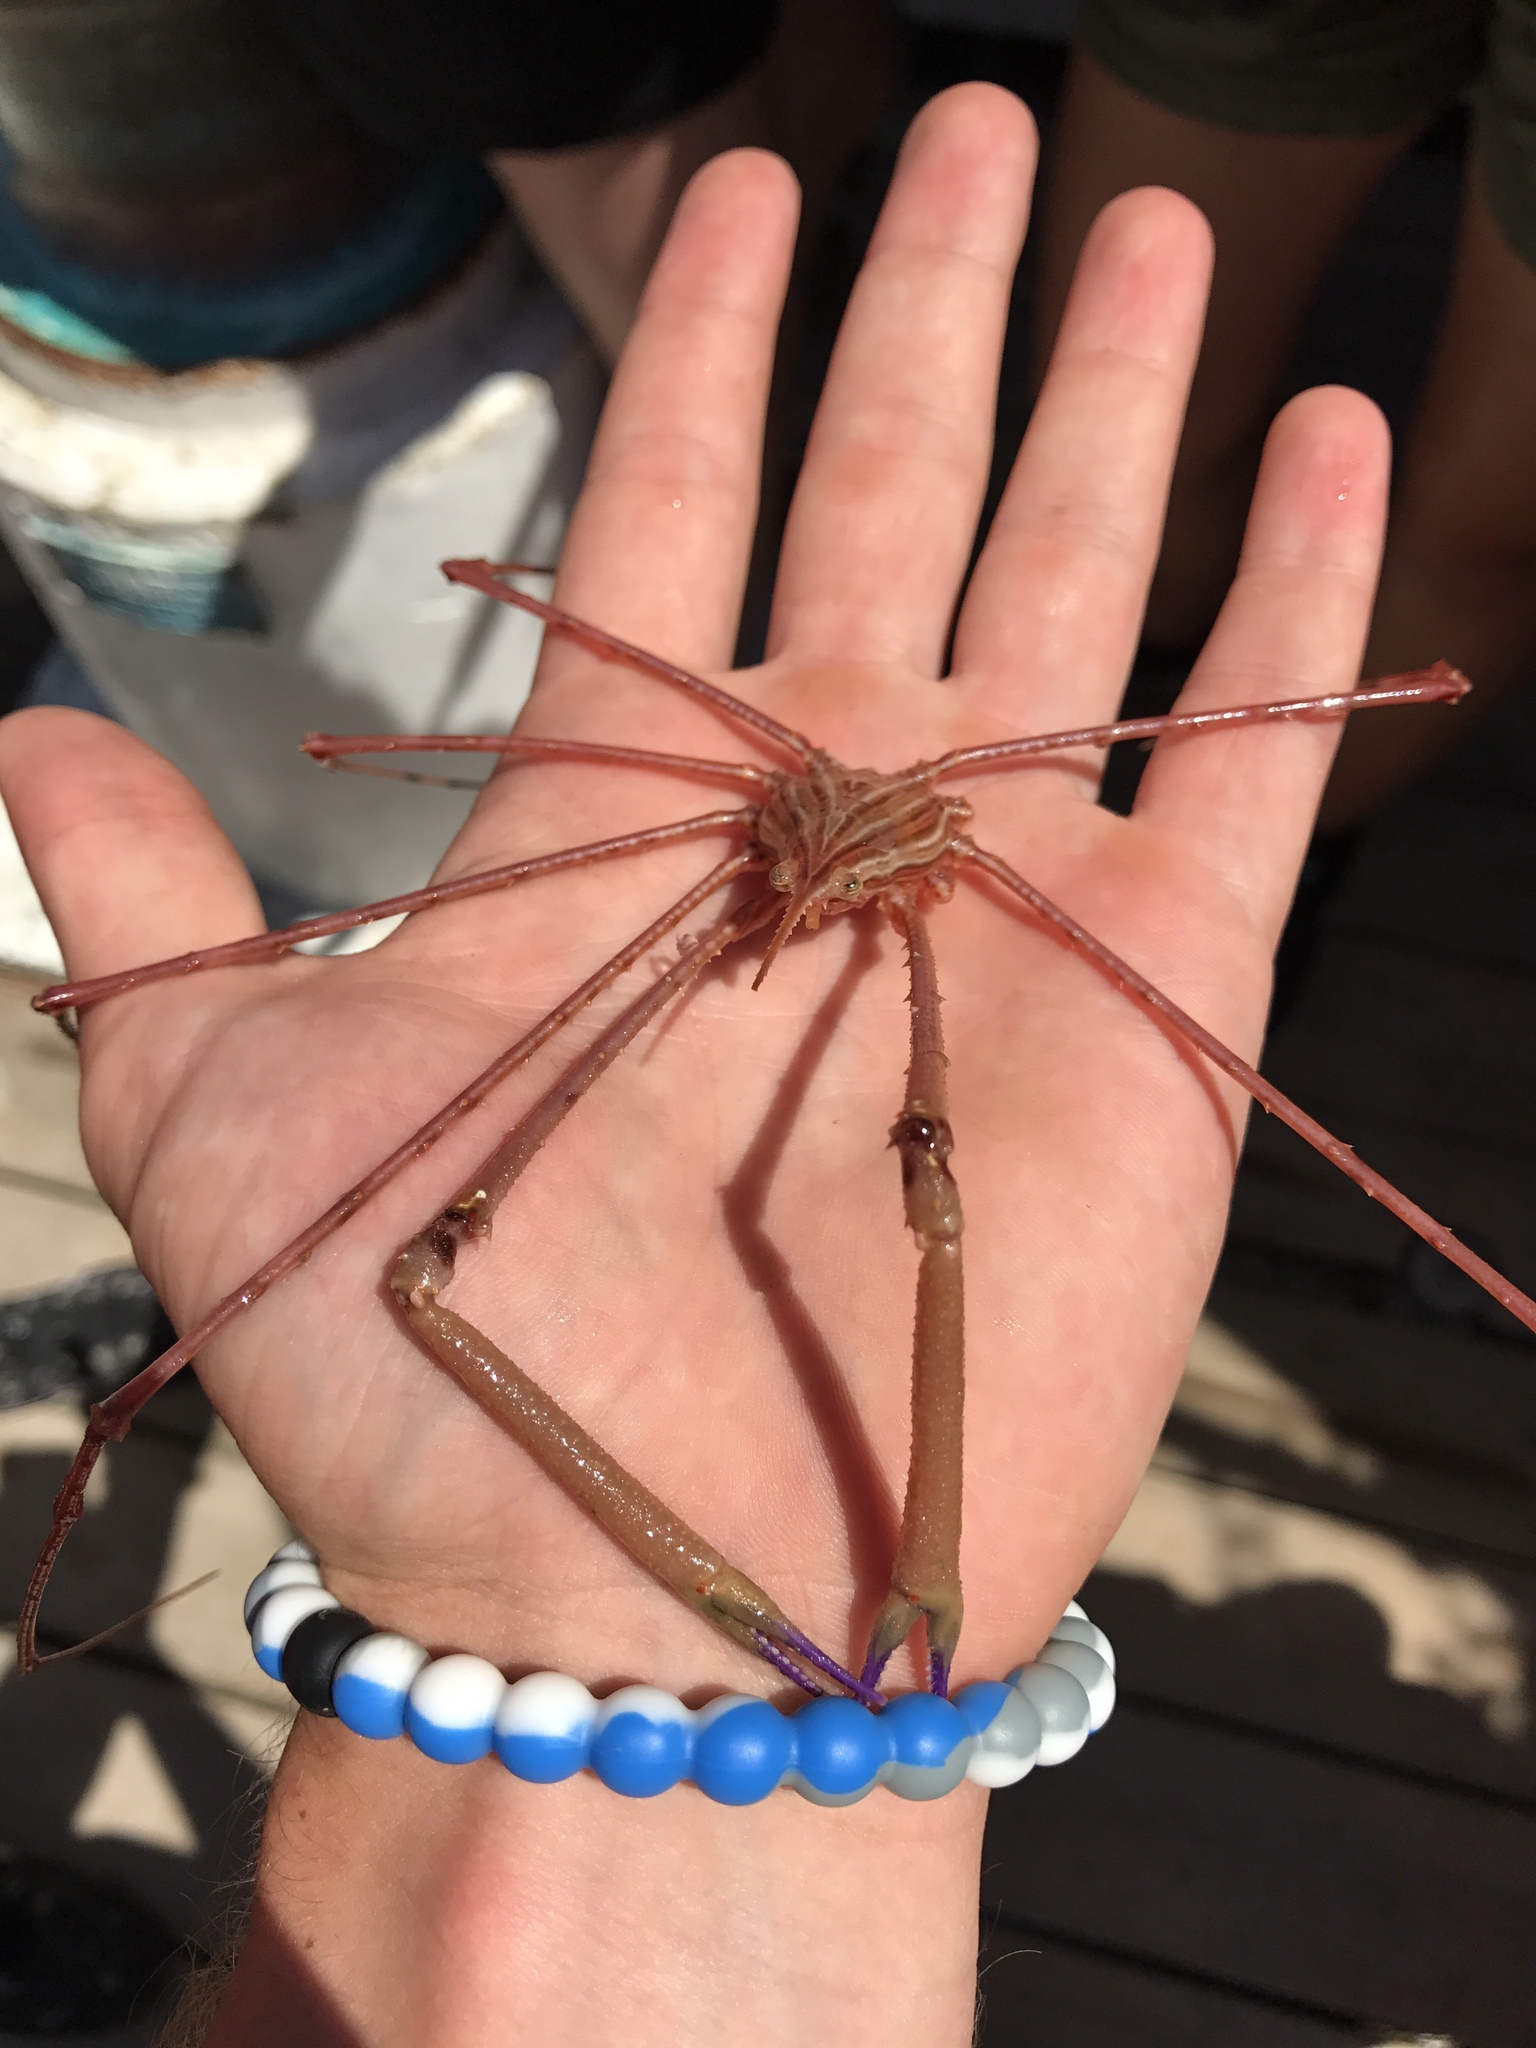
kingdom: Animalia
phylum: Arthropoda
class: Malacostraca
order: Decapoda
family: Inachoididae
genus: Stenorhynchus
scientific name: Stenorhynchus seticornis
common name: Arrow crab
